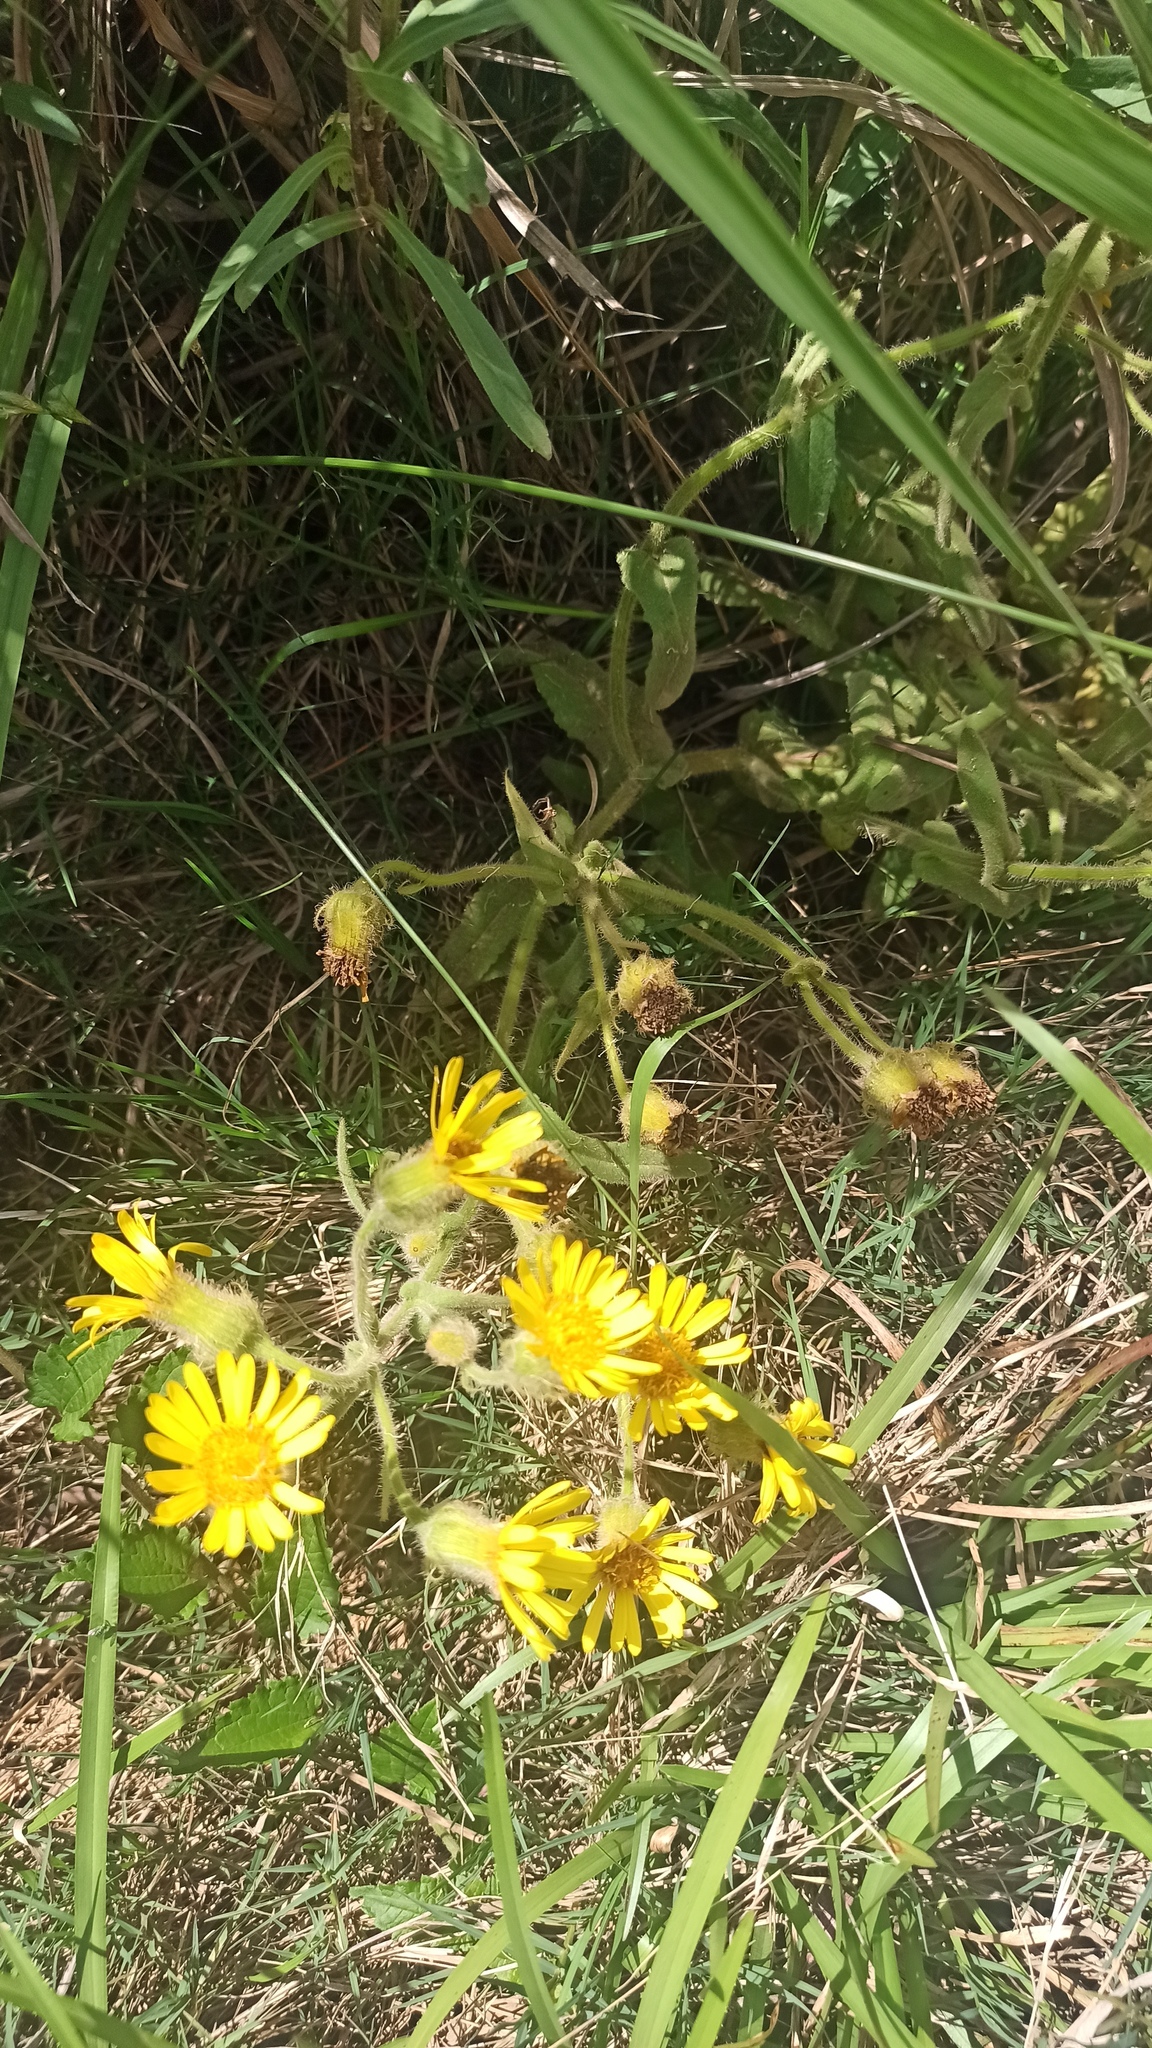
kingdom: Plantae
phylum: Tracheophyta
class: Magnoliopsida
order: Asterales
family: Asteraceae
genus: Senecio
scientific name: Senecio selloi
